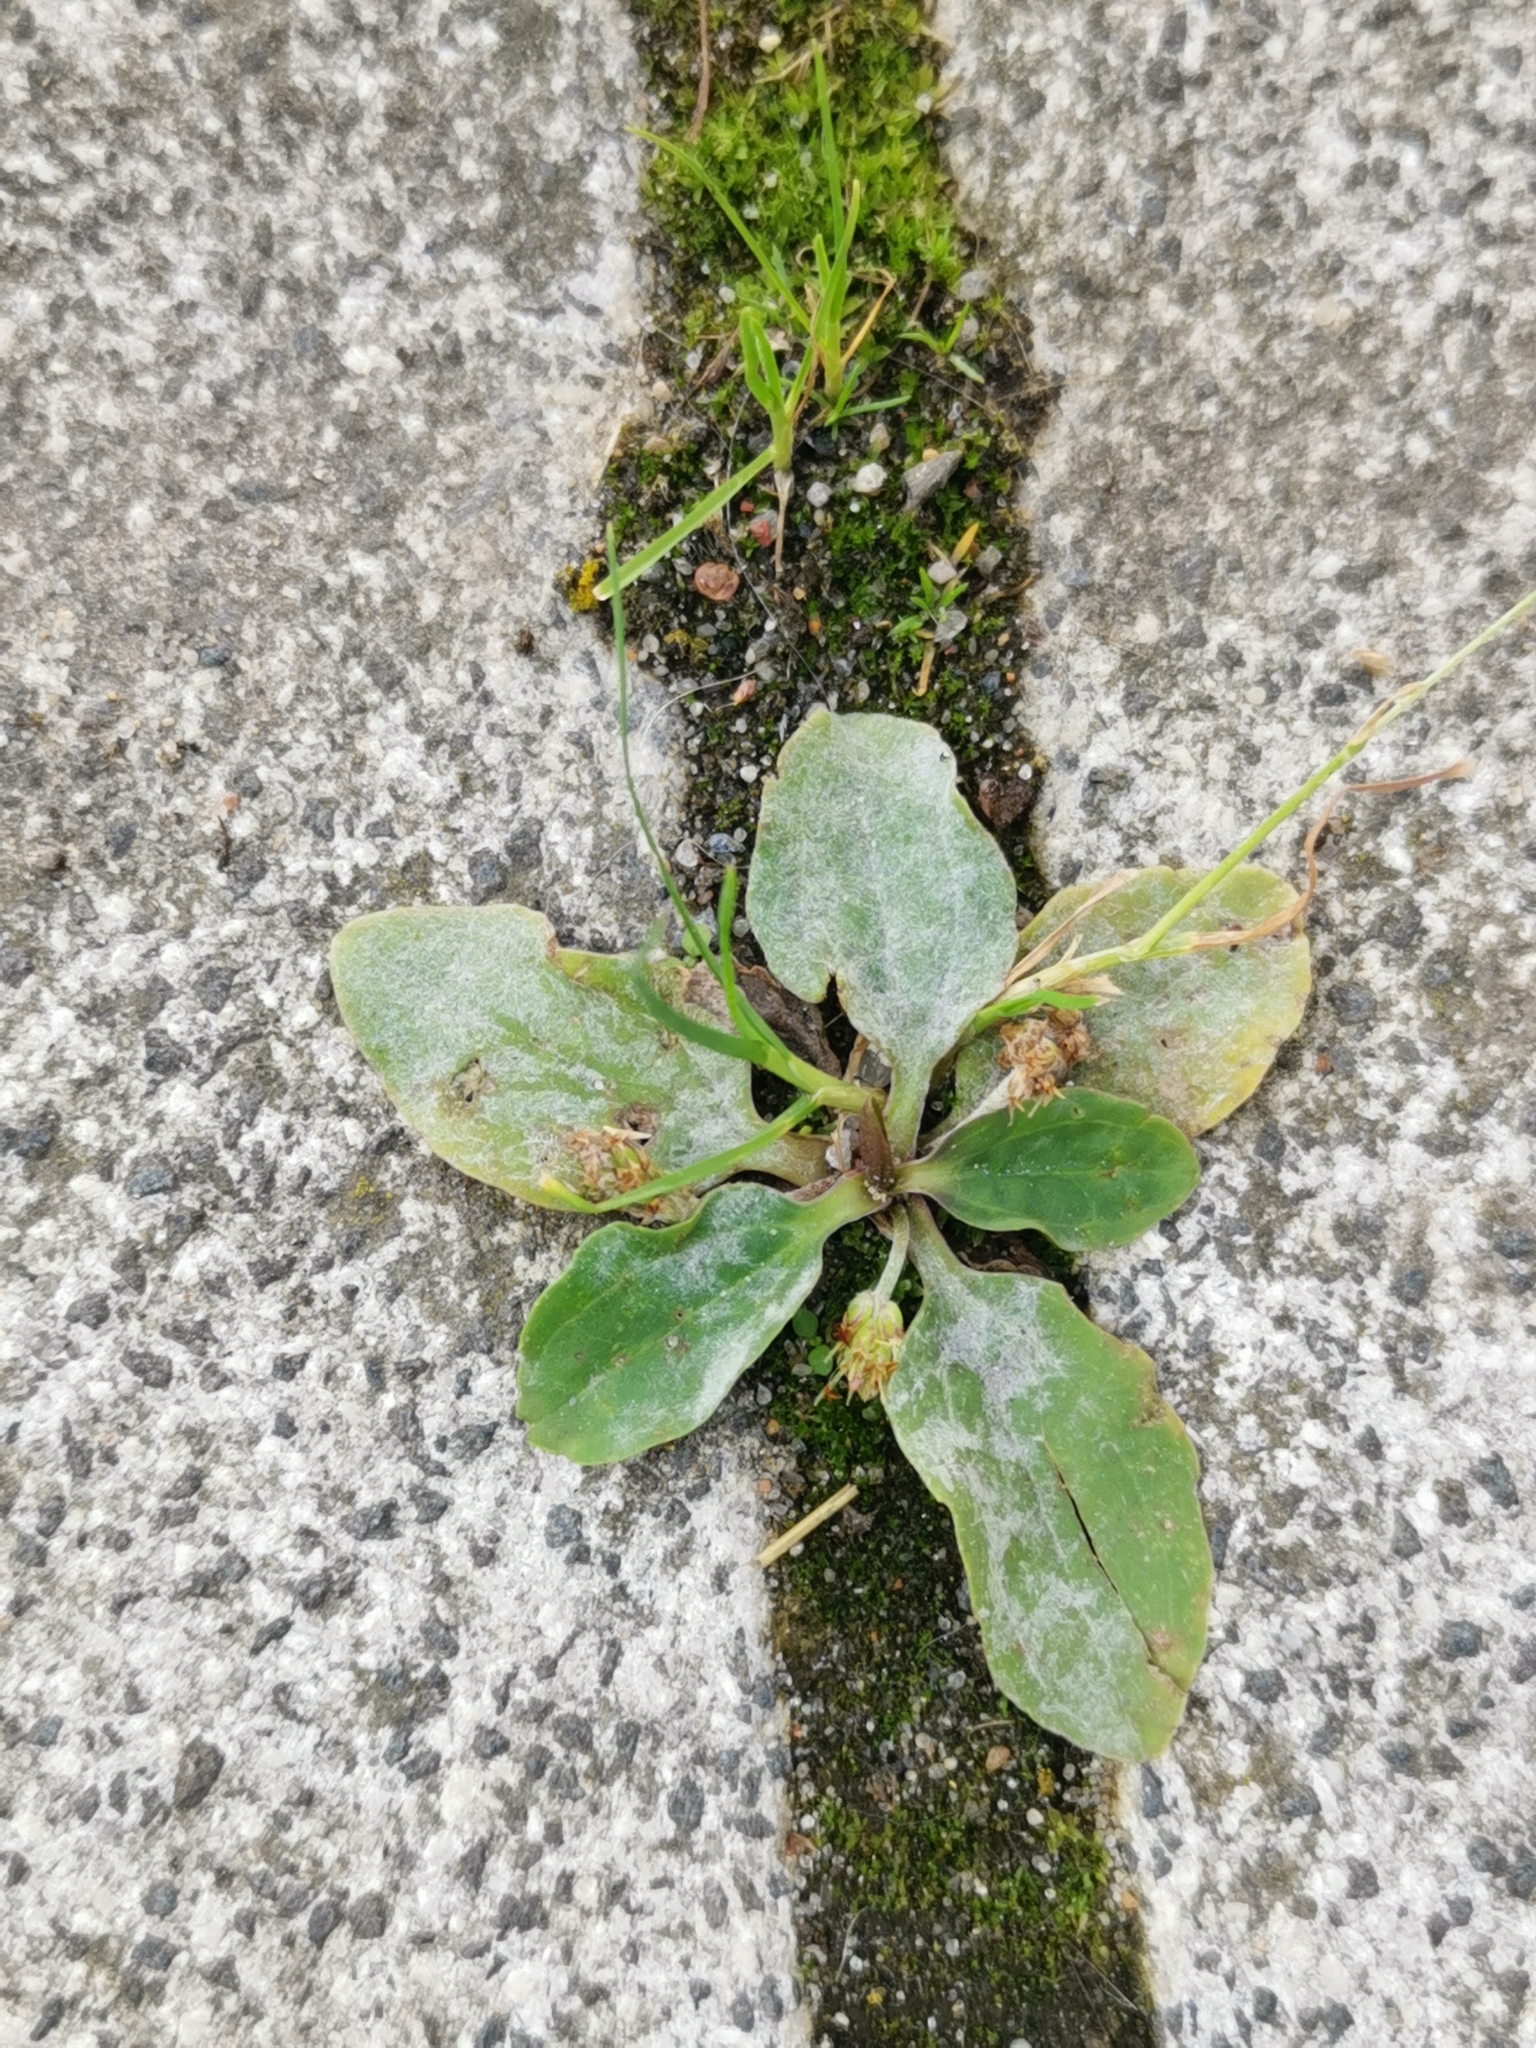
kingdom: Fungi
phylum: Ascomycota
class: Leotiomycetes
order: Helotiales
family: Erysiphaceae
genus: Golovinomyces
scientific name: Golovinomyces sordidus
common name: Plantain mildew
